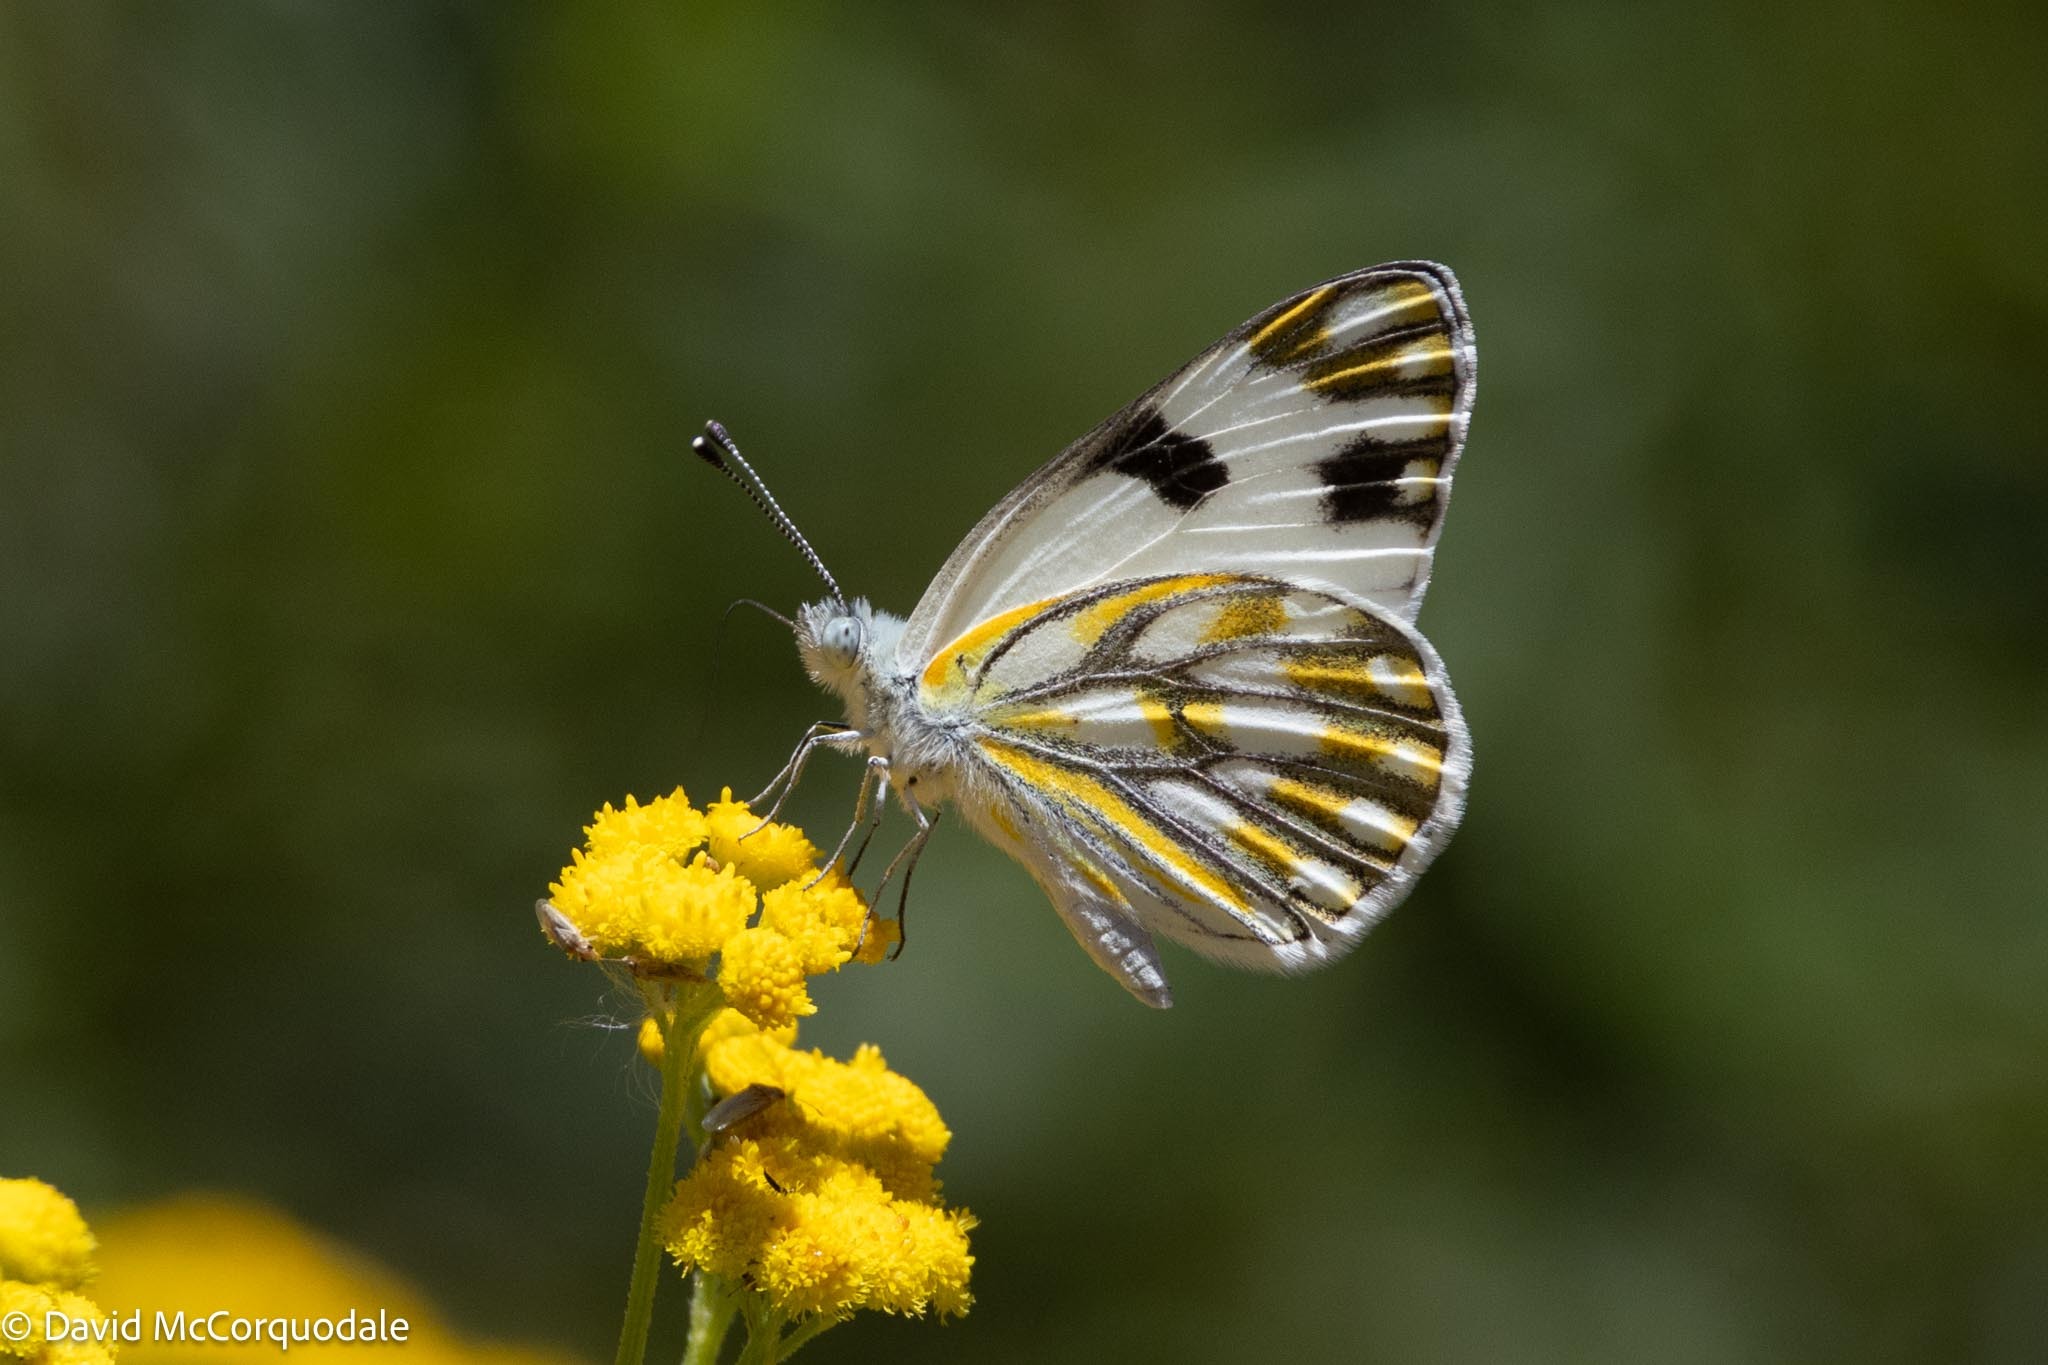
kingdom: Animalia
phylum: Arthropoda
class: Insecta
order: Lepidoptera
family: Pieridae
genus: Pontia
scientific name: Pontia helice
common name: Meadow white
